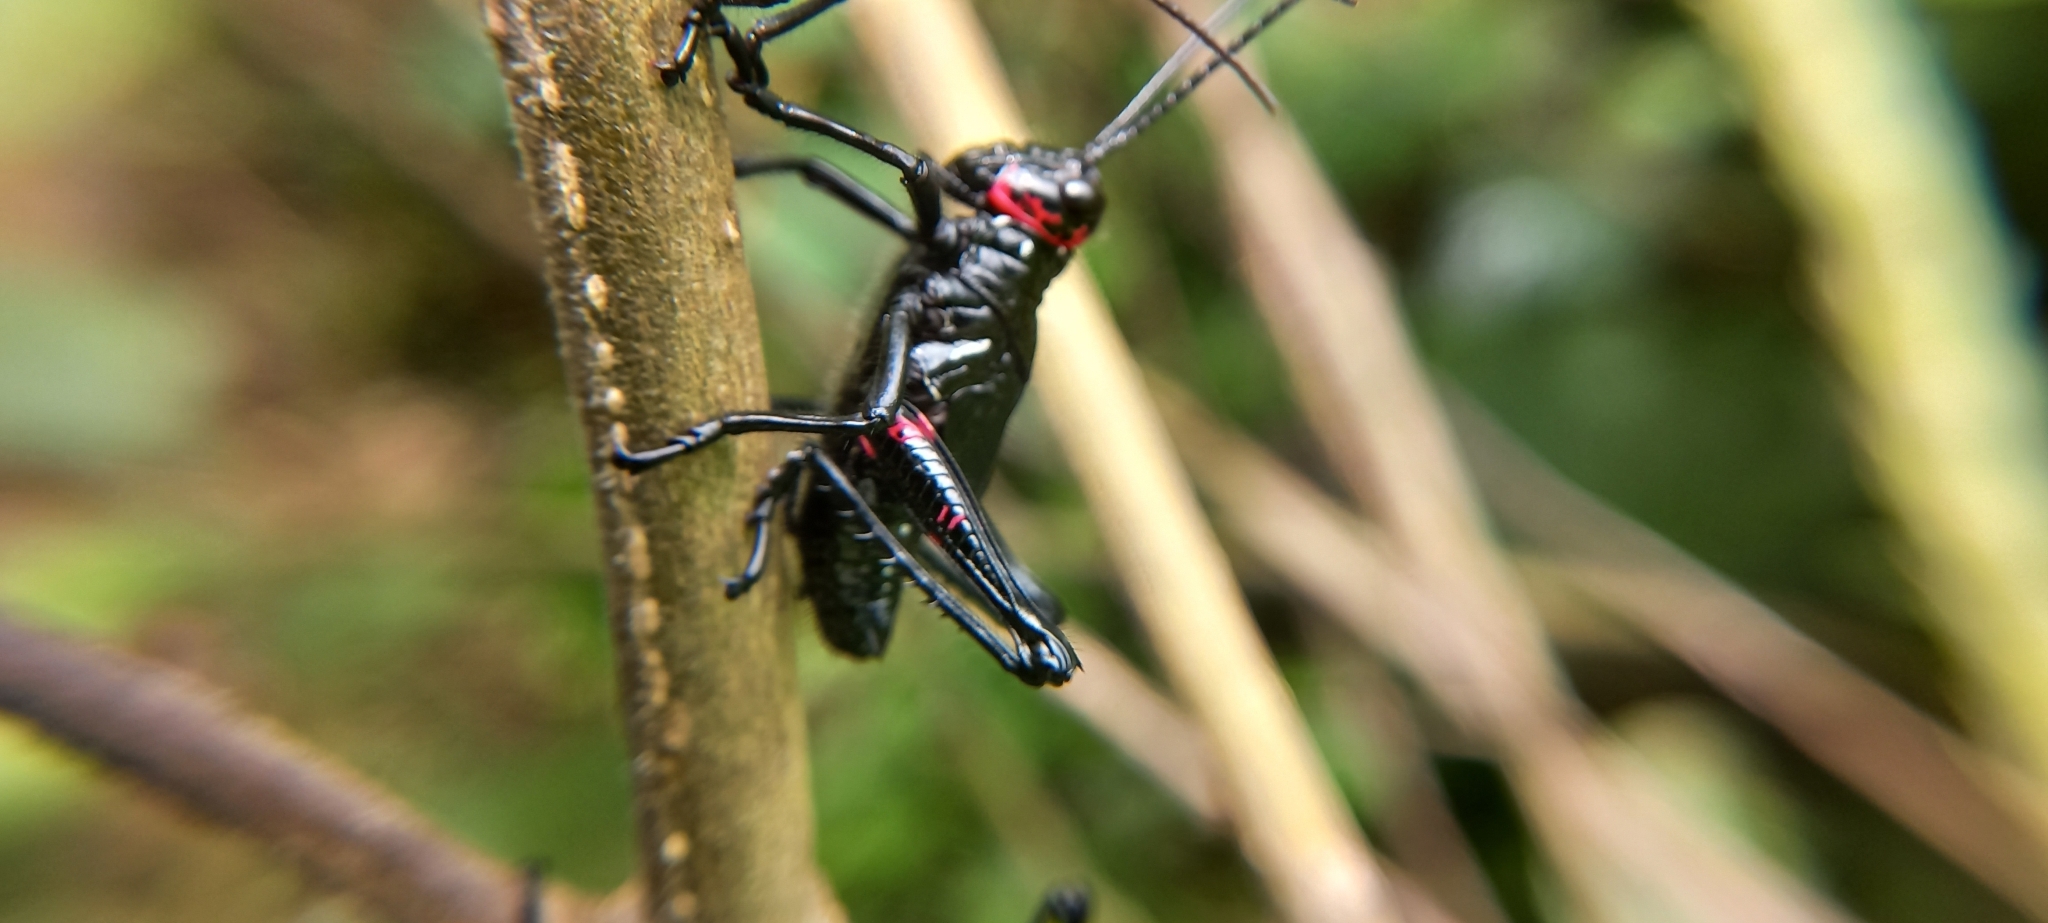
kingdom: Animalia
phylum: Arthropoda
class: Insecta
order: Orthoptera
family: Romaleidae
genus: Chromacris
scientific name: Chromacris speciosa
